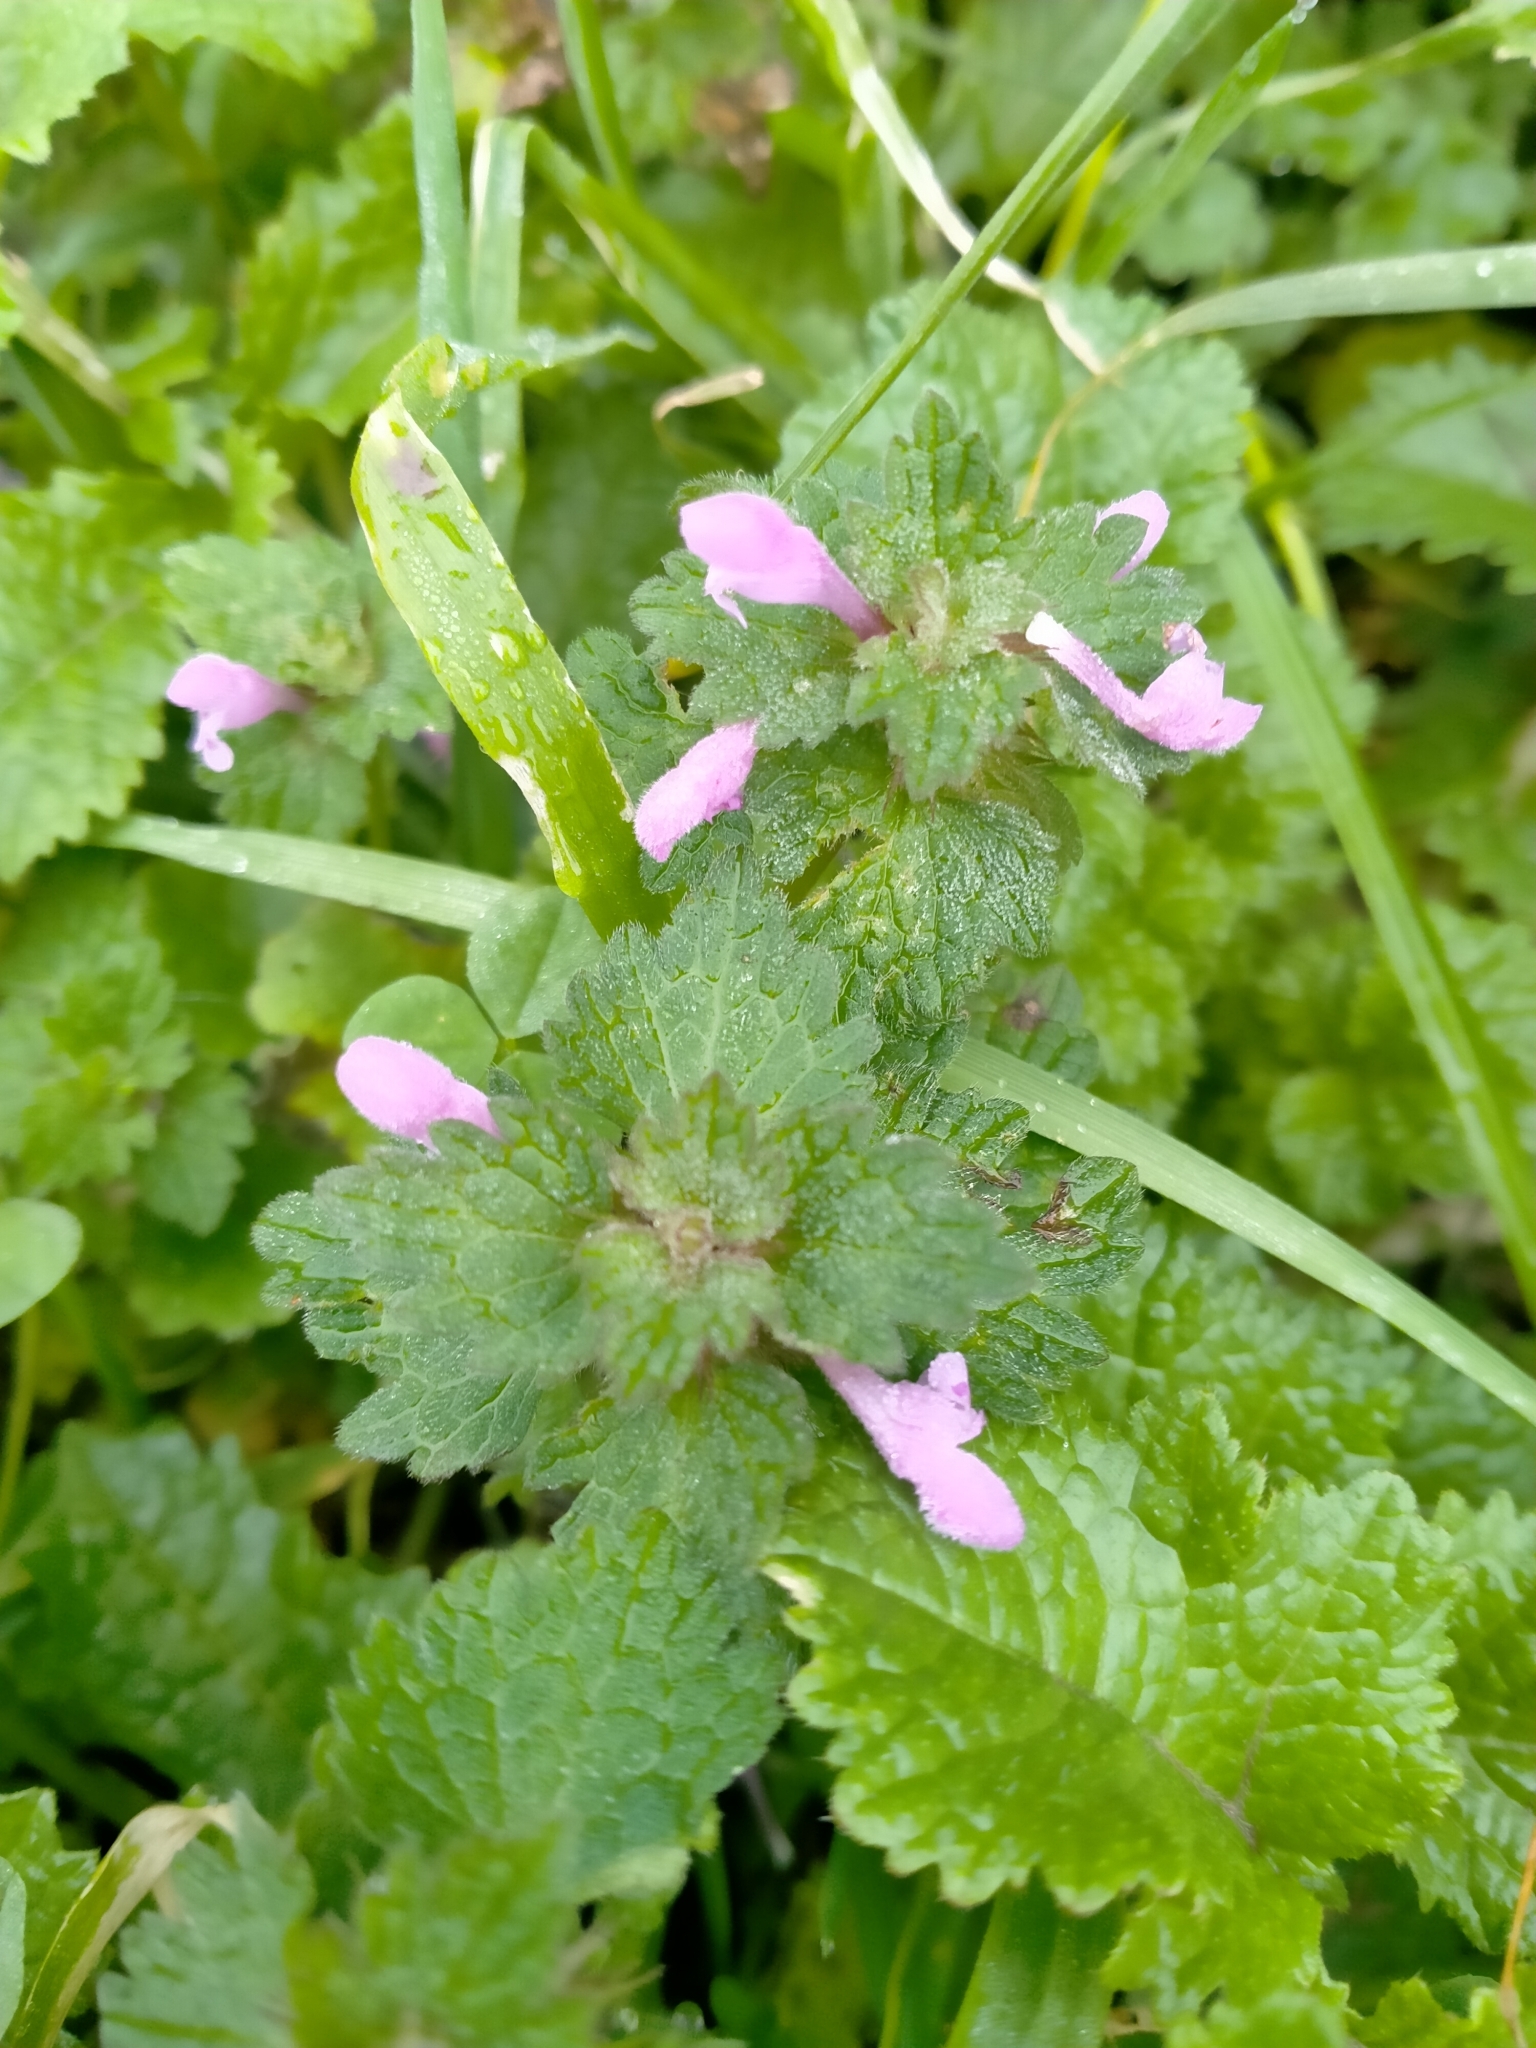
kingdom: Plantae
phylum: Tracheophyta
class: Magnoliopsida
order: Lamiales
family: Lamiaceae
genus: Lamium
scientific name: Lamium hybridum
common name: Cut-leaved dead-nettle
